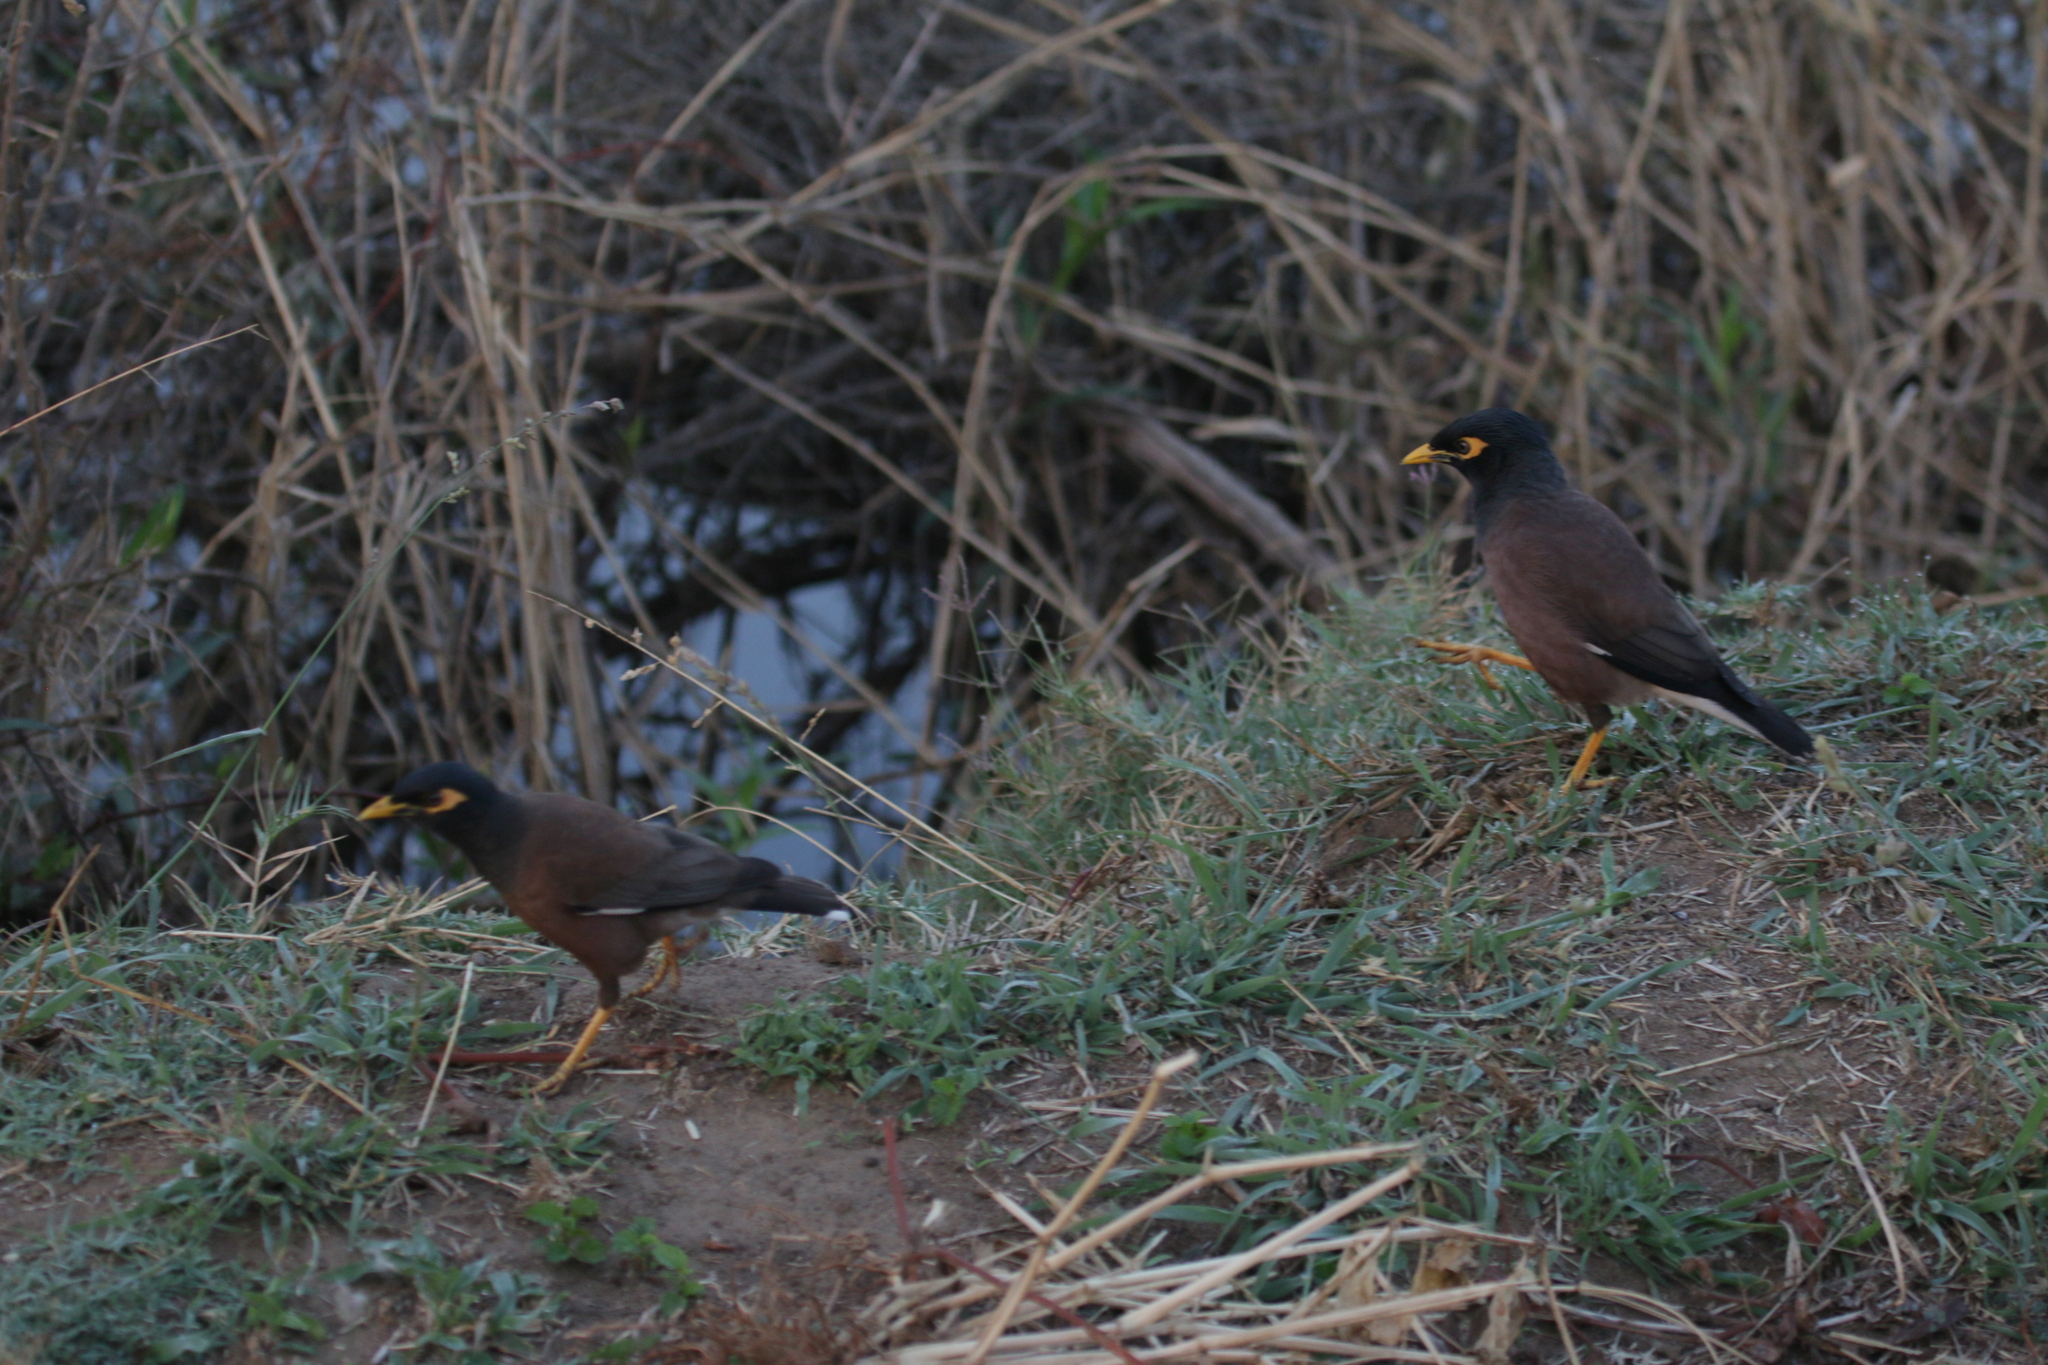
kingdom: Animalia
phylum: Chordata
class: Aves
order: Passeriformes
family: Sturnidae
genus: Acridotheres
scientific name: Acridotheres tristis
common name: Common myna
